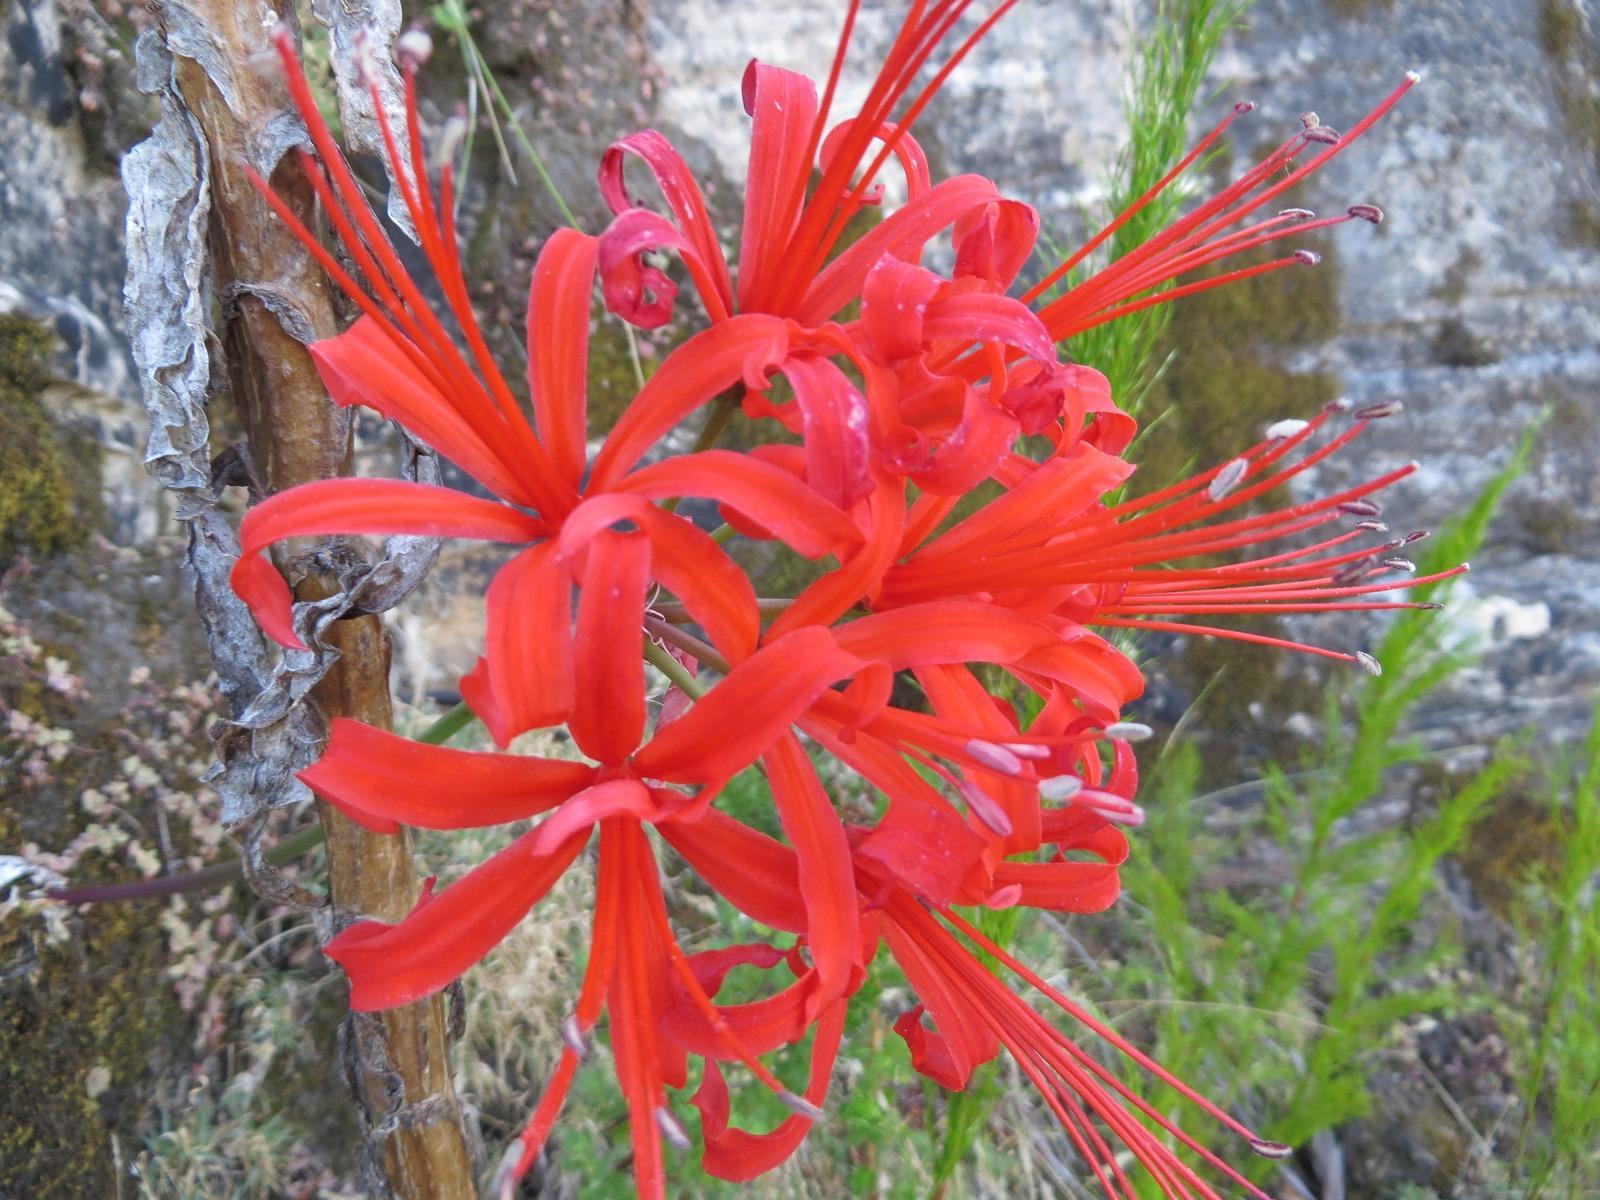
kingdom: Plantae
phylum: Tracheophyta
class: Liliopsida
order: Asparagales
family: Amaryllidaceae
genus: Nerine
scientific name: Nerine sarniensis
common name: Guernsey-lily
